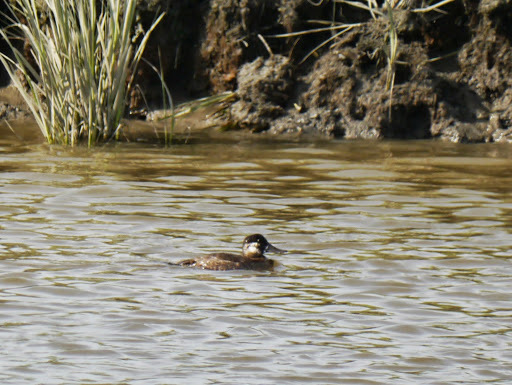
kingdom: Animalia
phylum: Chordata
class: Aves
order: Anseriformes
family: Anatidae
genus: Oxyura
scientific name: Oxyura jamaicensis
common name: Ruddy duck
